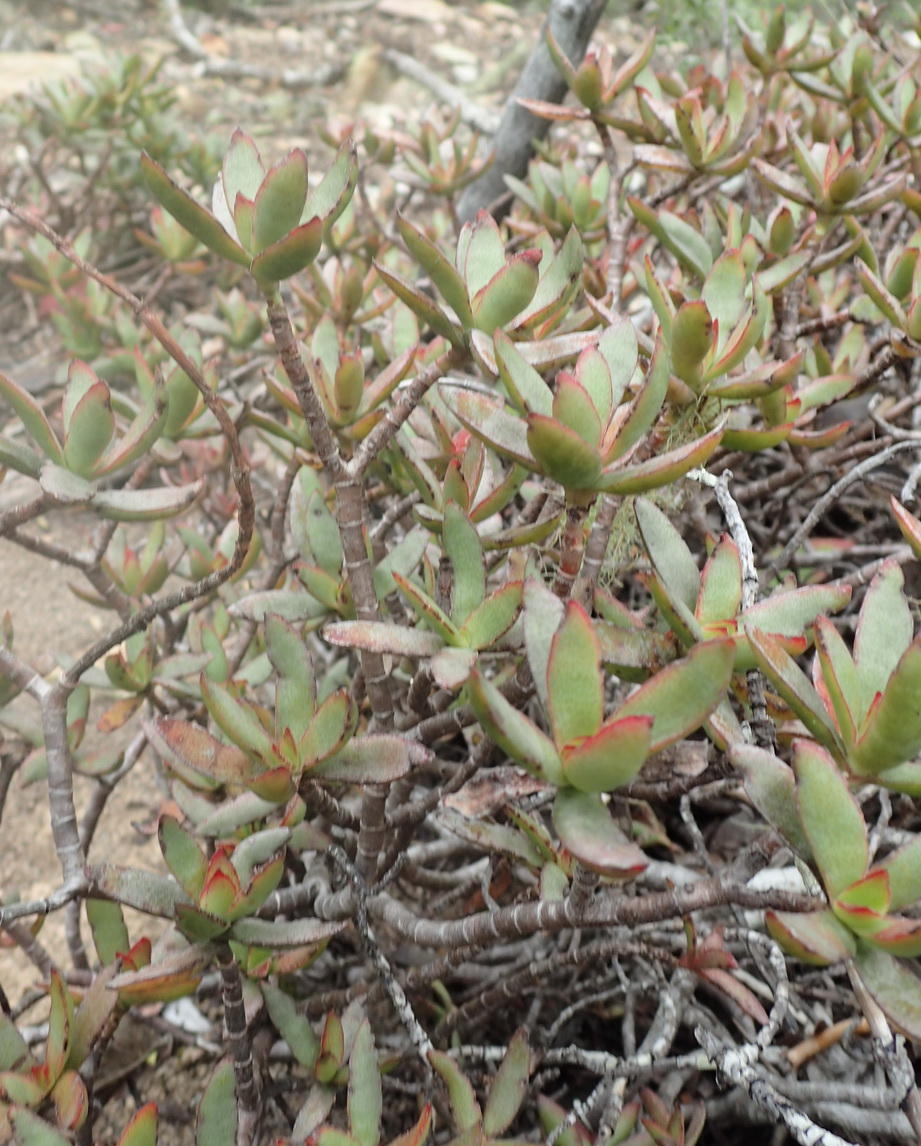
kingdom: Plantae
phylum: Tracheophyta
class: Magnoliopsida
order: Saxifragales
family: Crassulaceae
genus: Crassula
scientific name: Crassula rubricaulis
